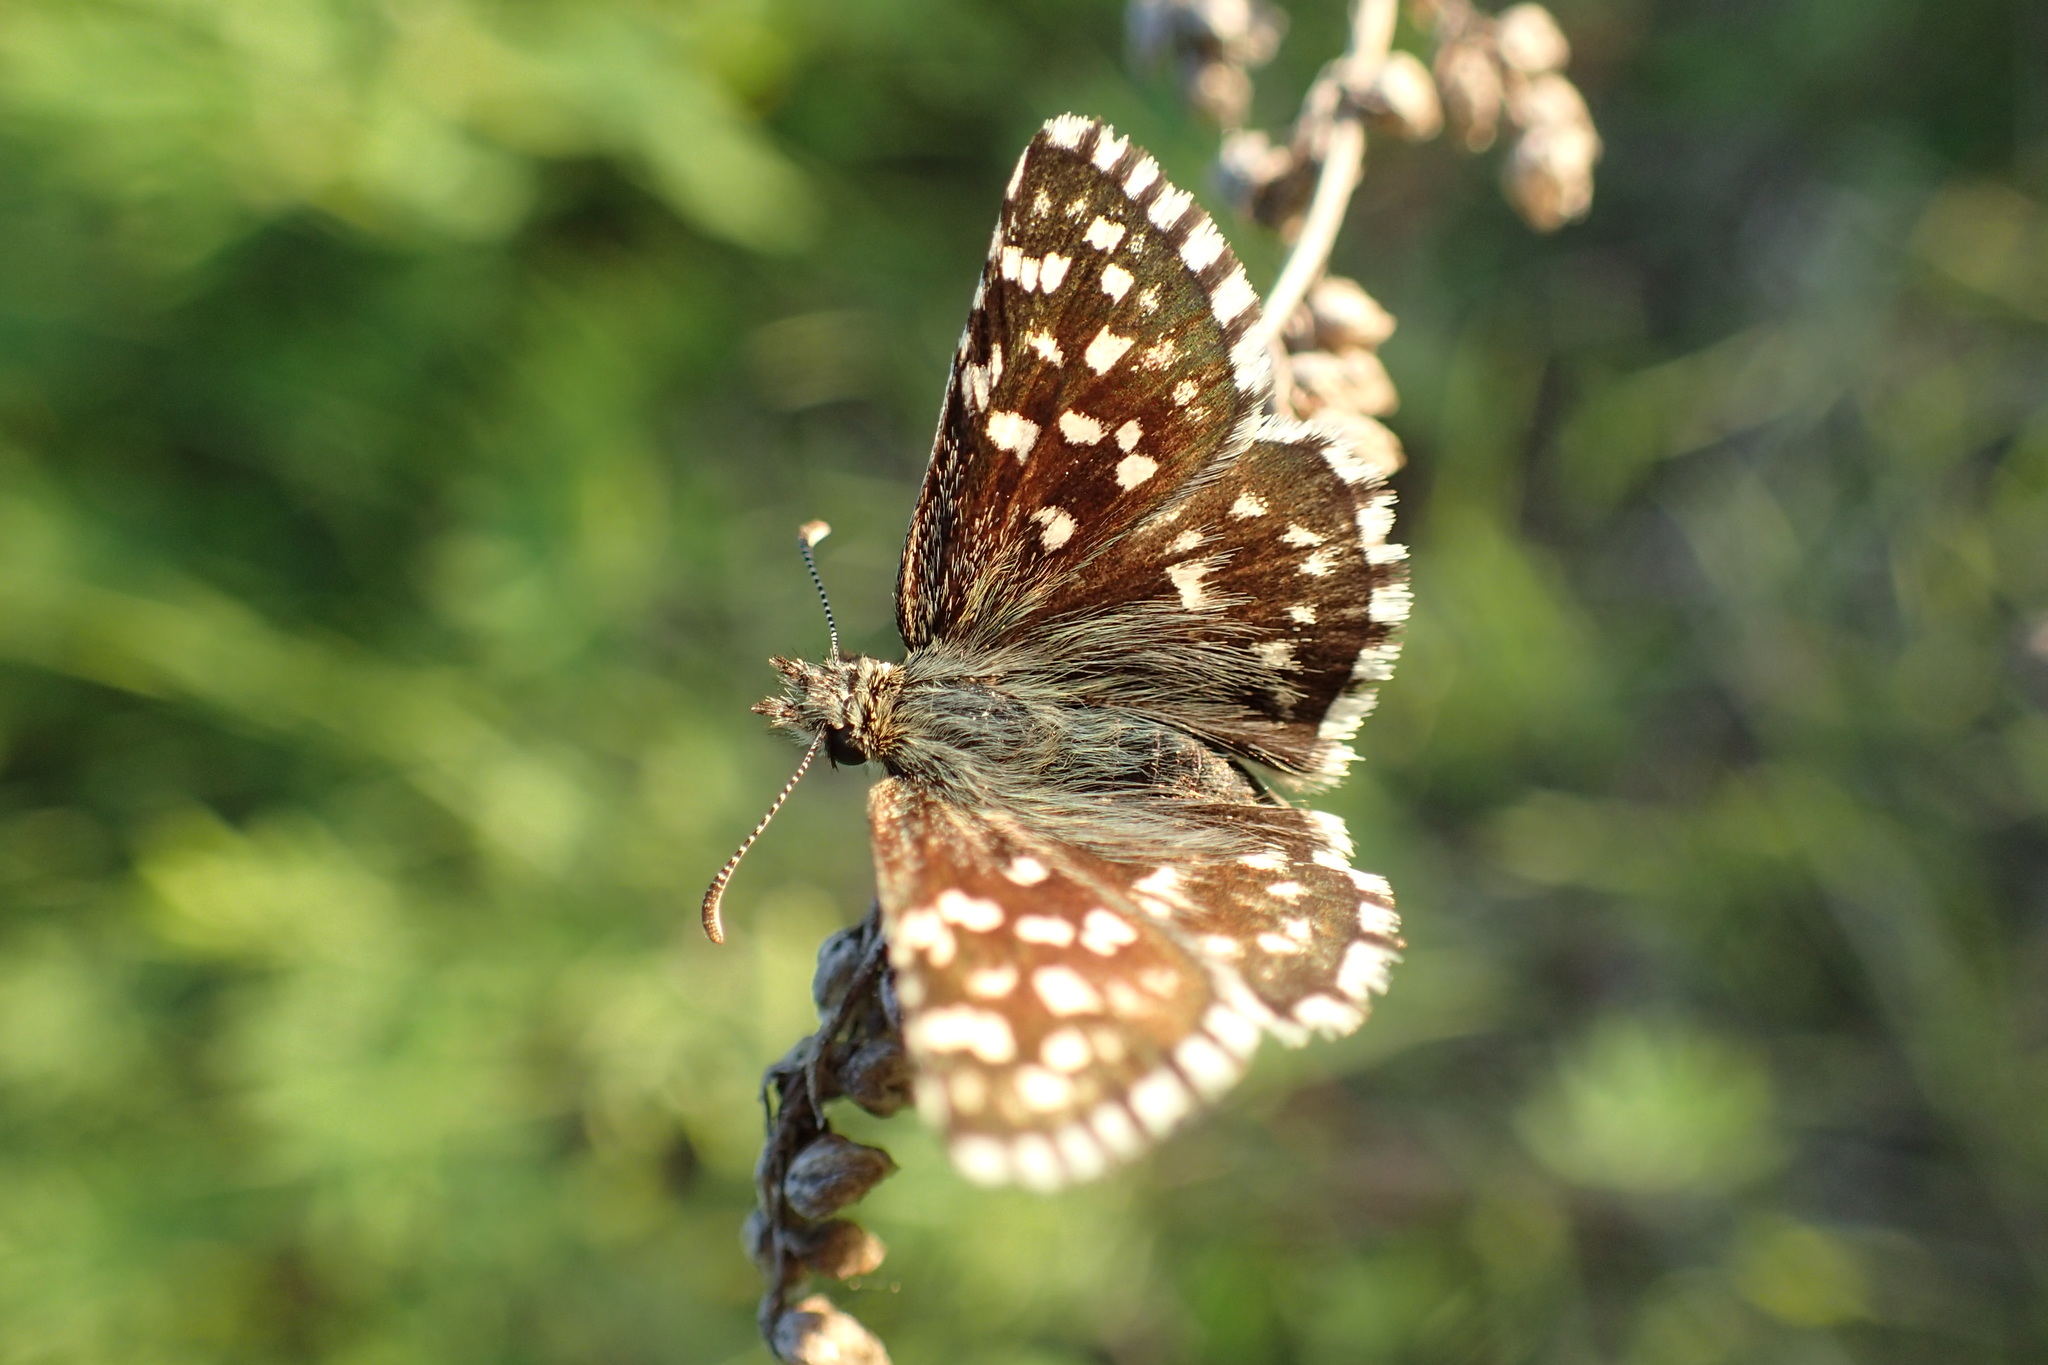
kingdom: Animalia
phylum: Arthropoda
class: Insecta
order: Lepidoptera
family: Hesperiidae
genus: Pyrgus
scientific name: Pyrgus malvae
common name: Grizzled skipper
